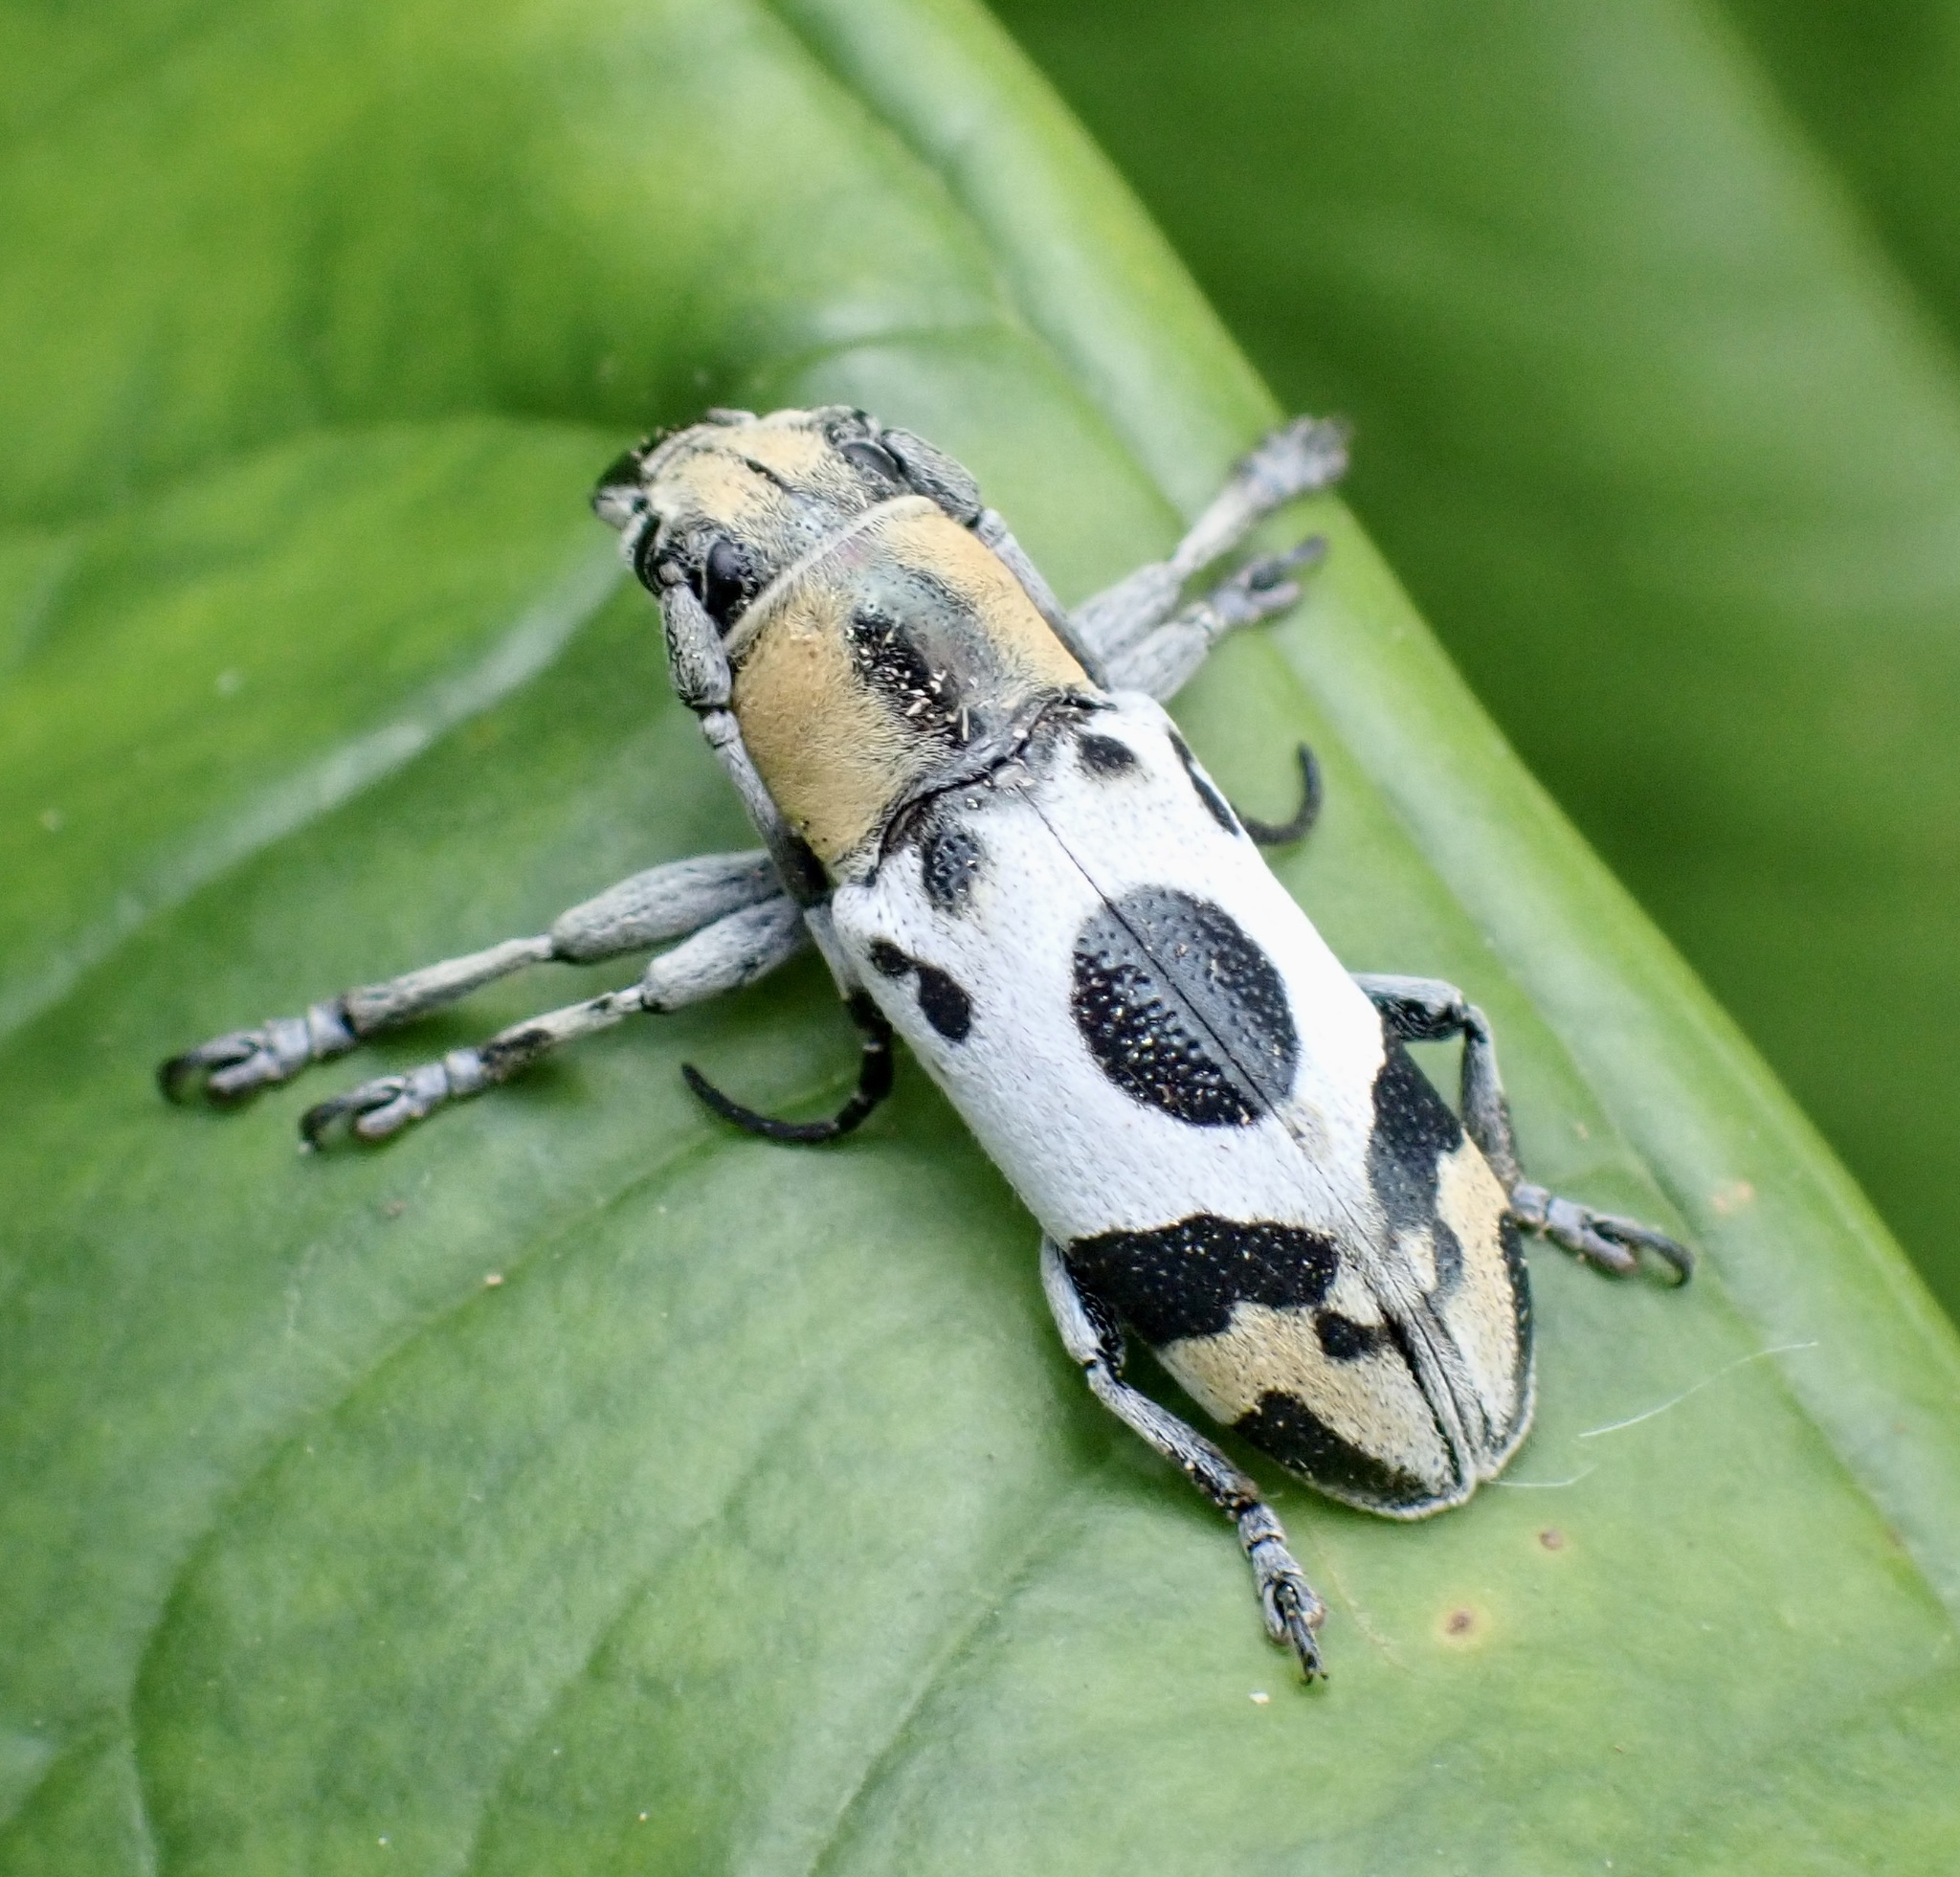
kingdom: Animalia
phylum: Arthropoda
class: Insecta
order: Coleoptera
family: Cerambycidae
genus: Callimetopus
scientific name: Callimetopus illecebrosus
